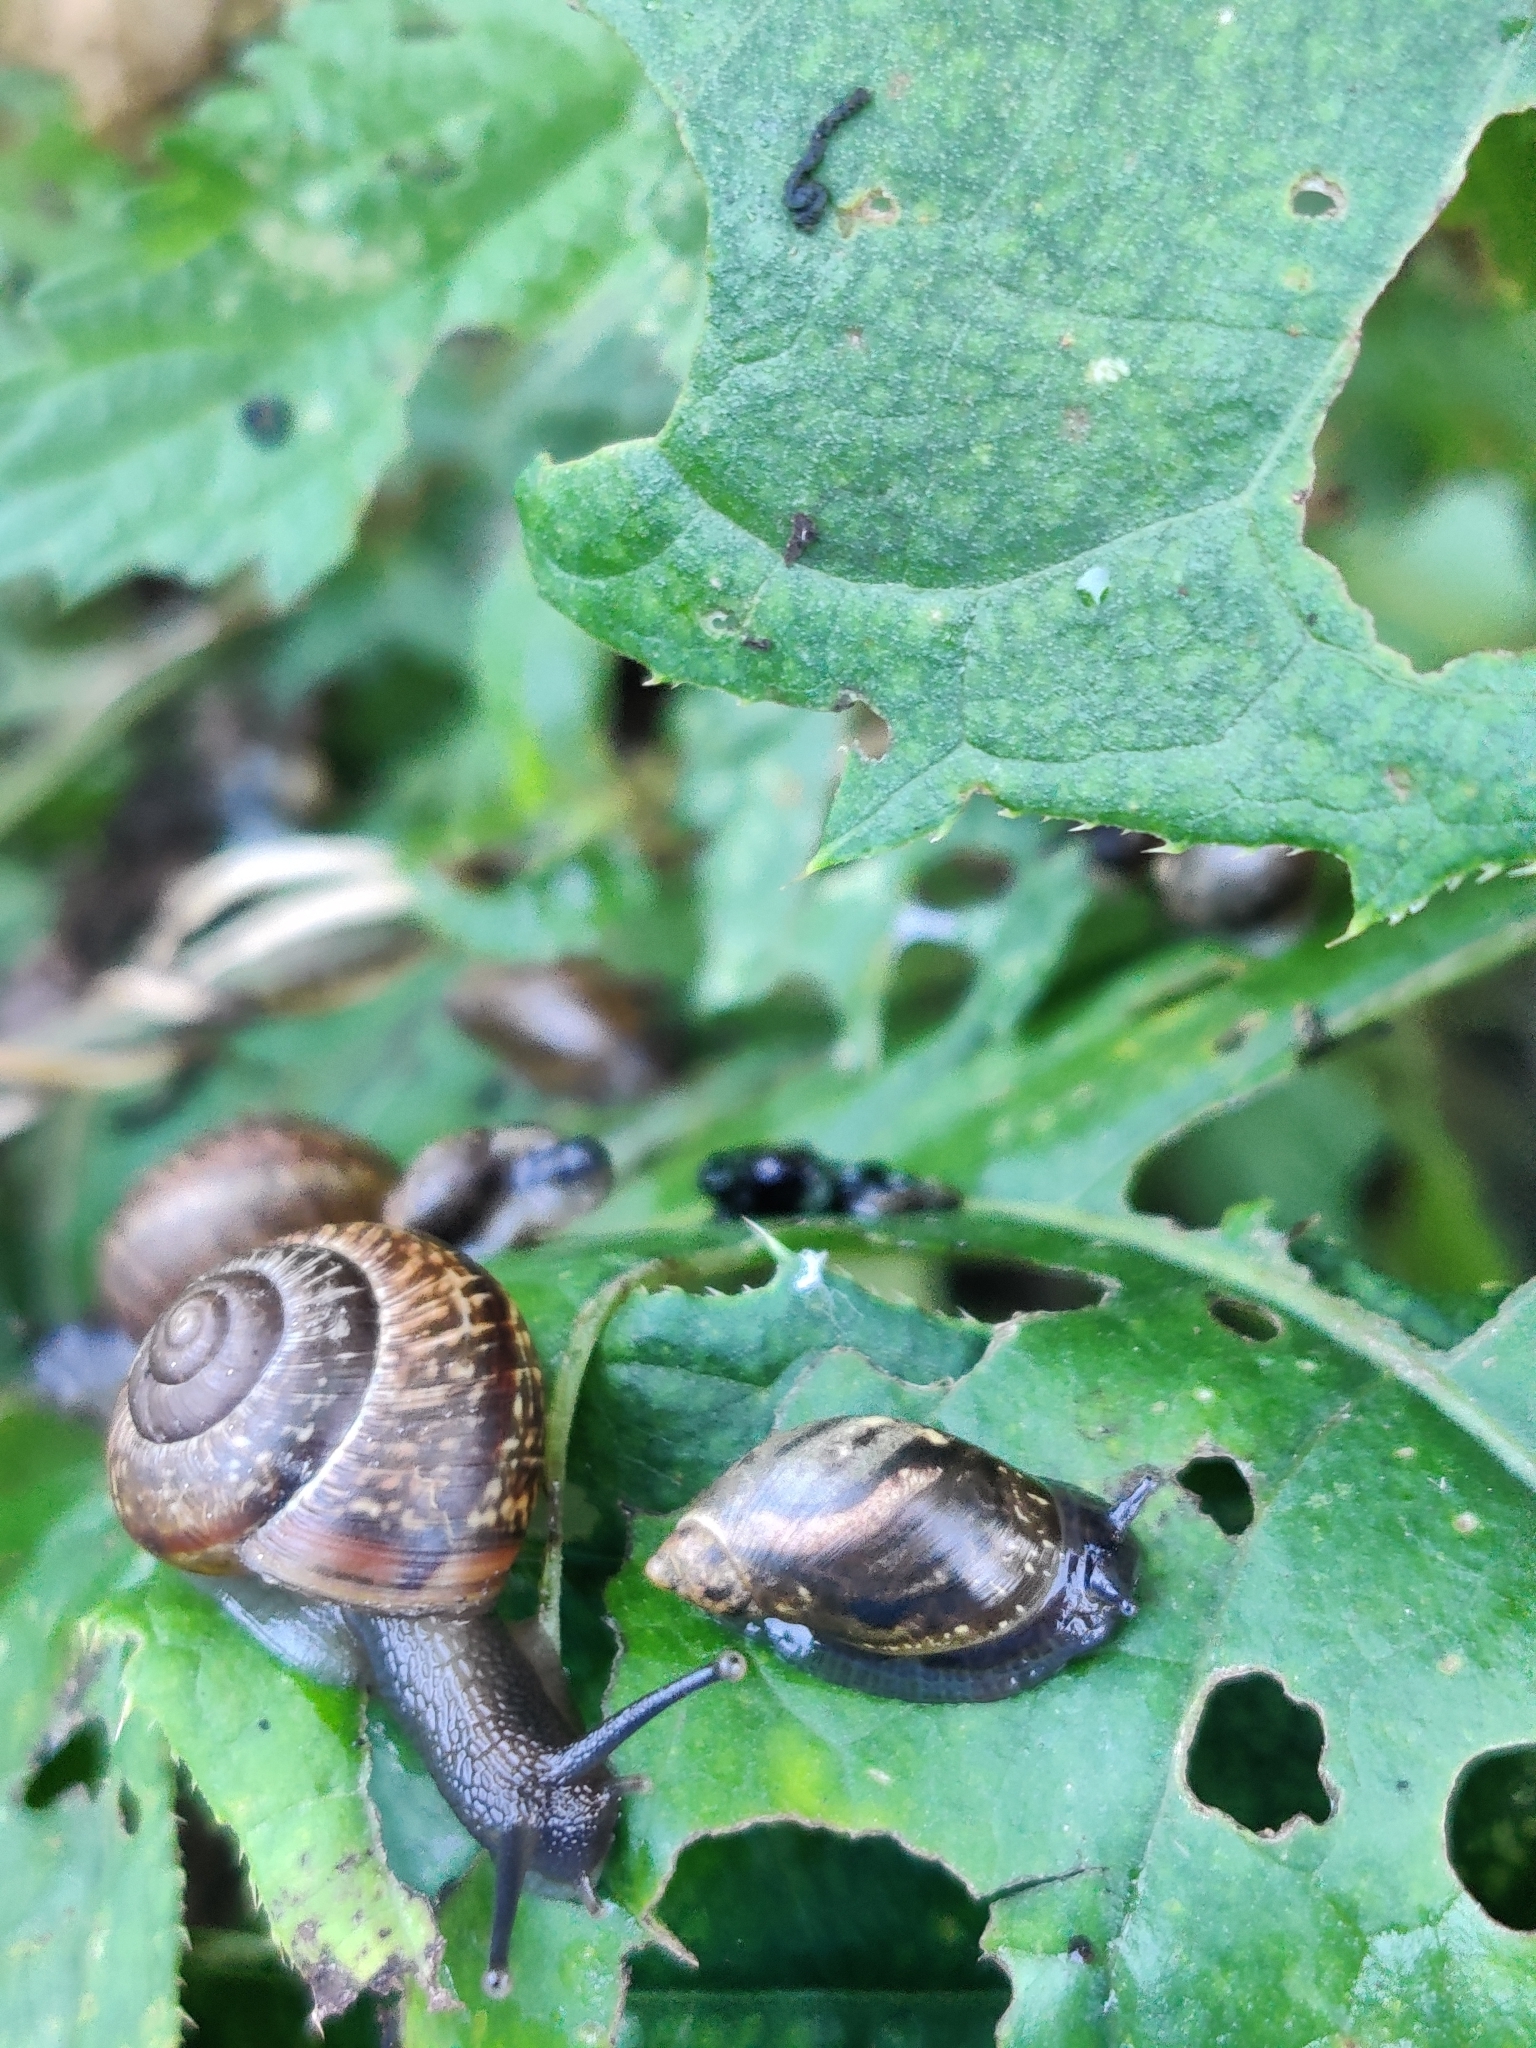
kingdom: Animalia
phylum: Mollusca
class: Gastropoda
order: Stylommatophora
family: Succineidae
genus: Succinea
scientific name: Succinea putris
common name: European ambersnail
